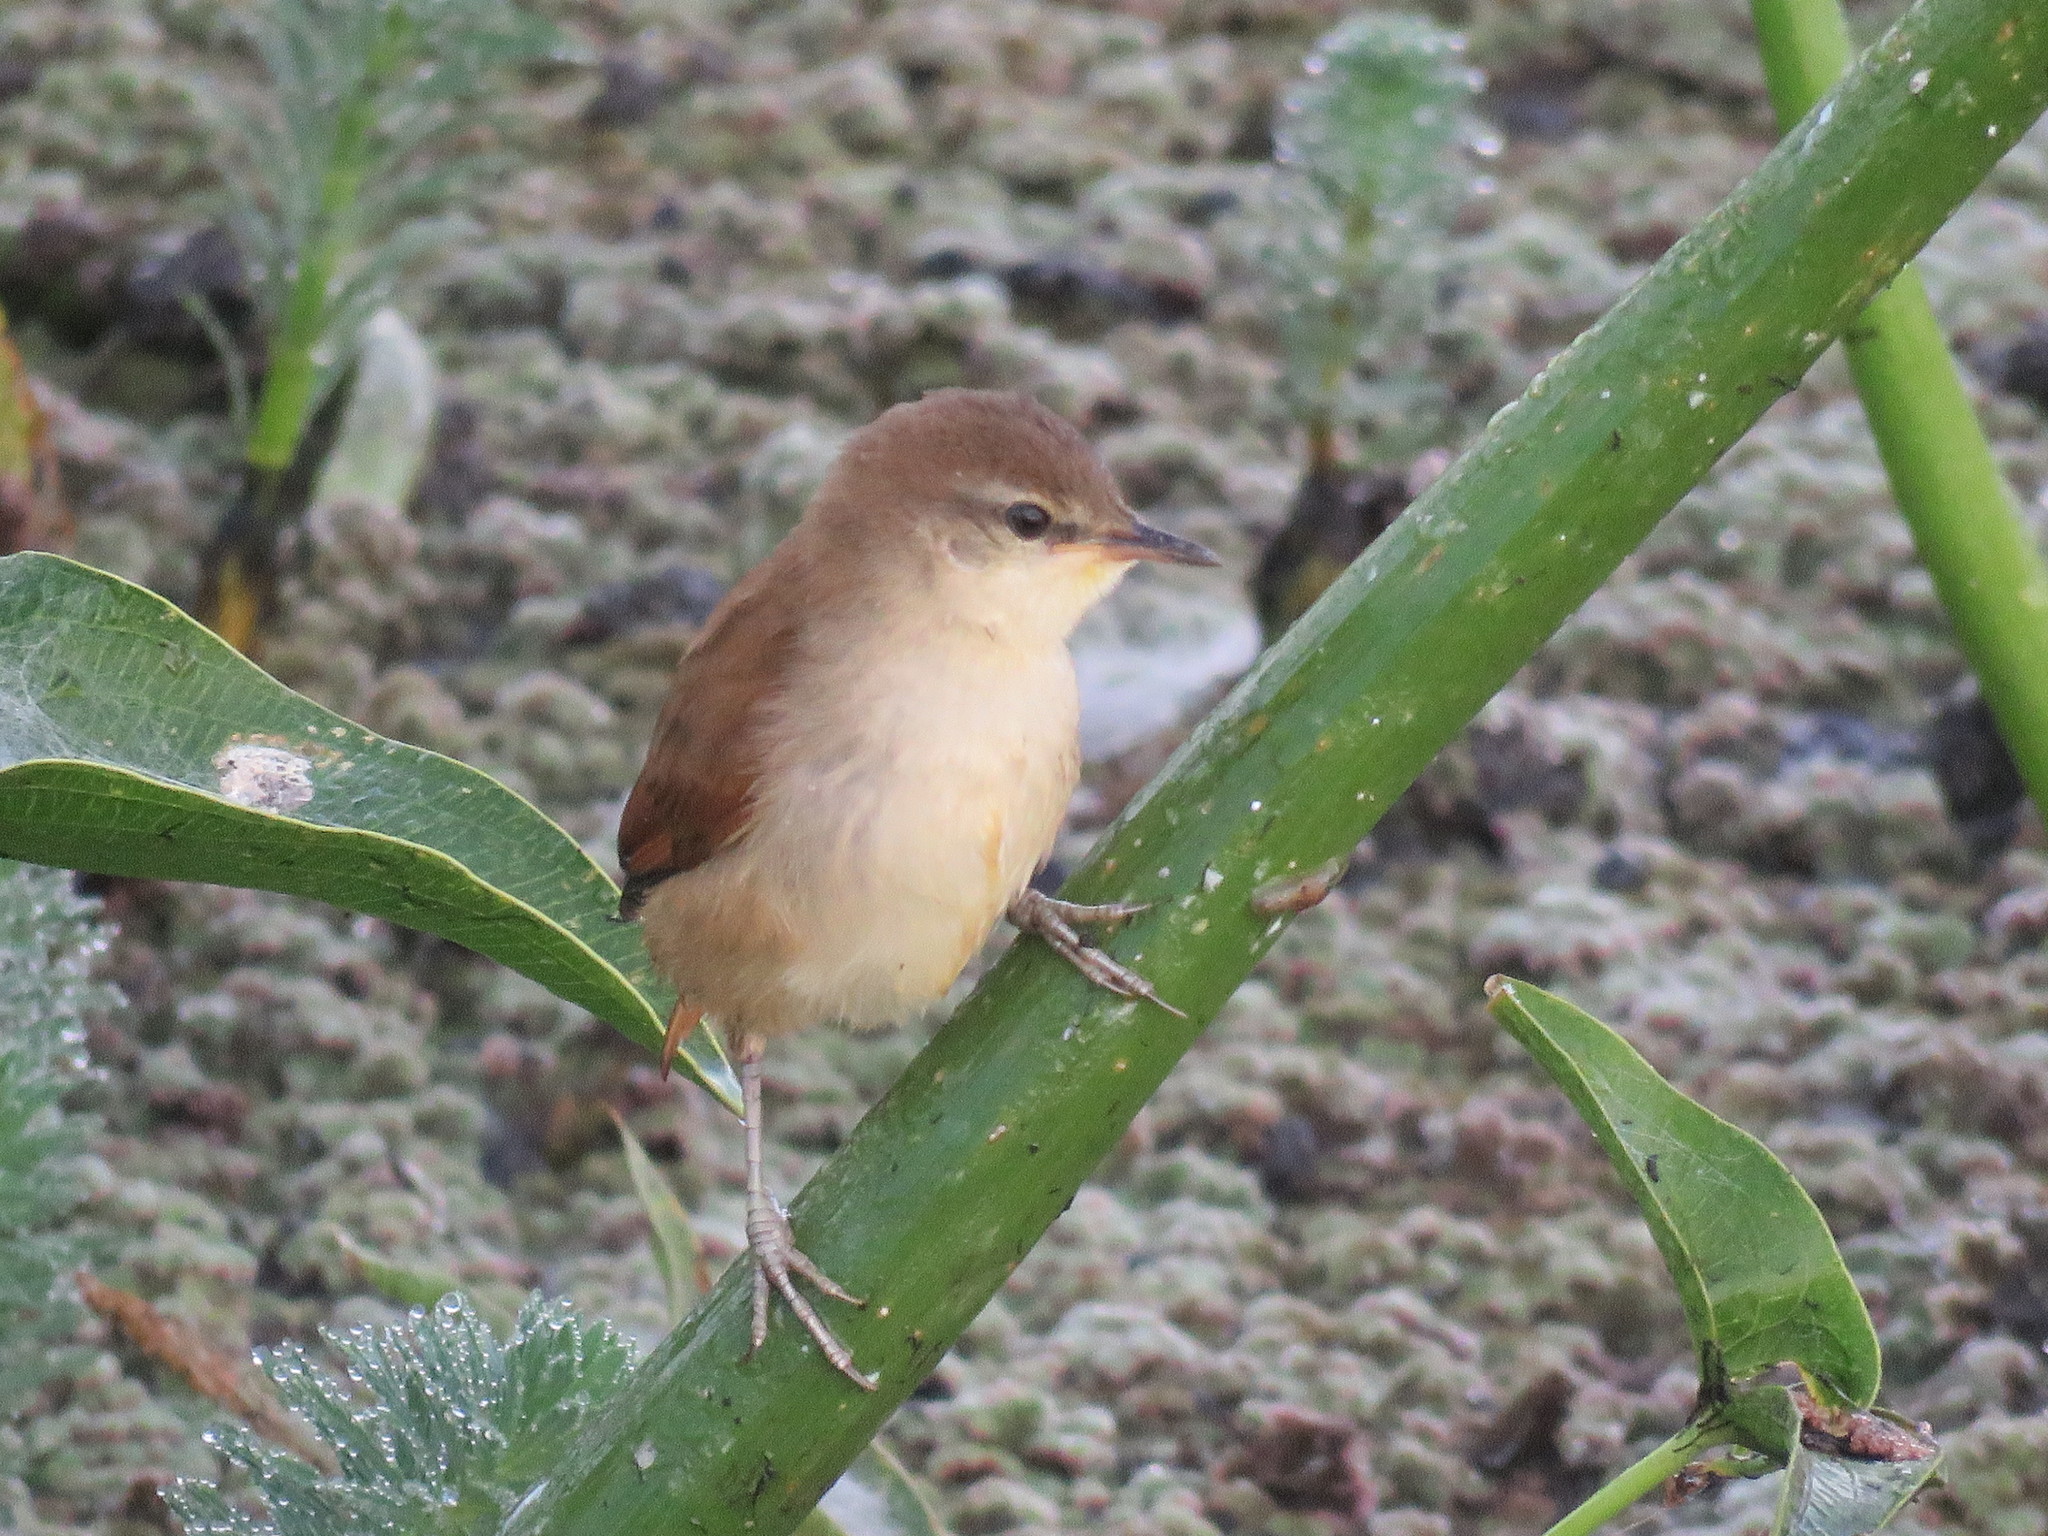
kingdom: Animalia
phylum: Chordata
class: Aves
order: Passeriformes
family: Furnariidae
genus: Certhiaxis
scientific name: Certhiaxis cinnamomeus
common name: Yellow-chinned spinetail
